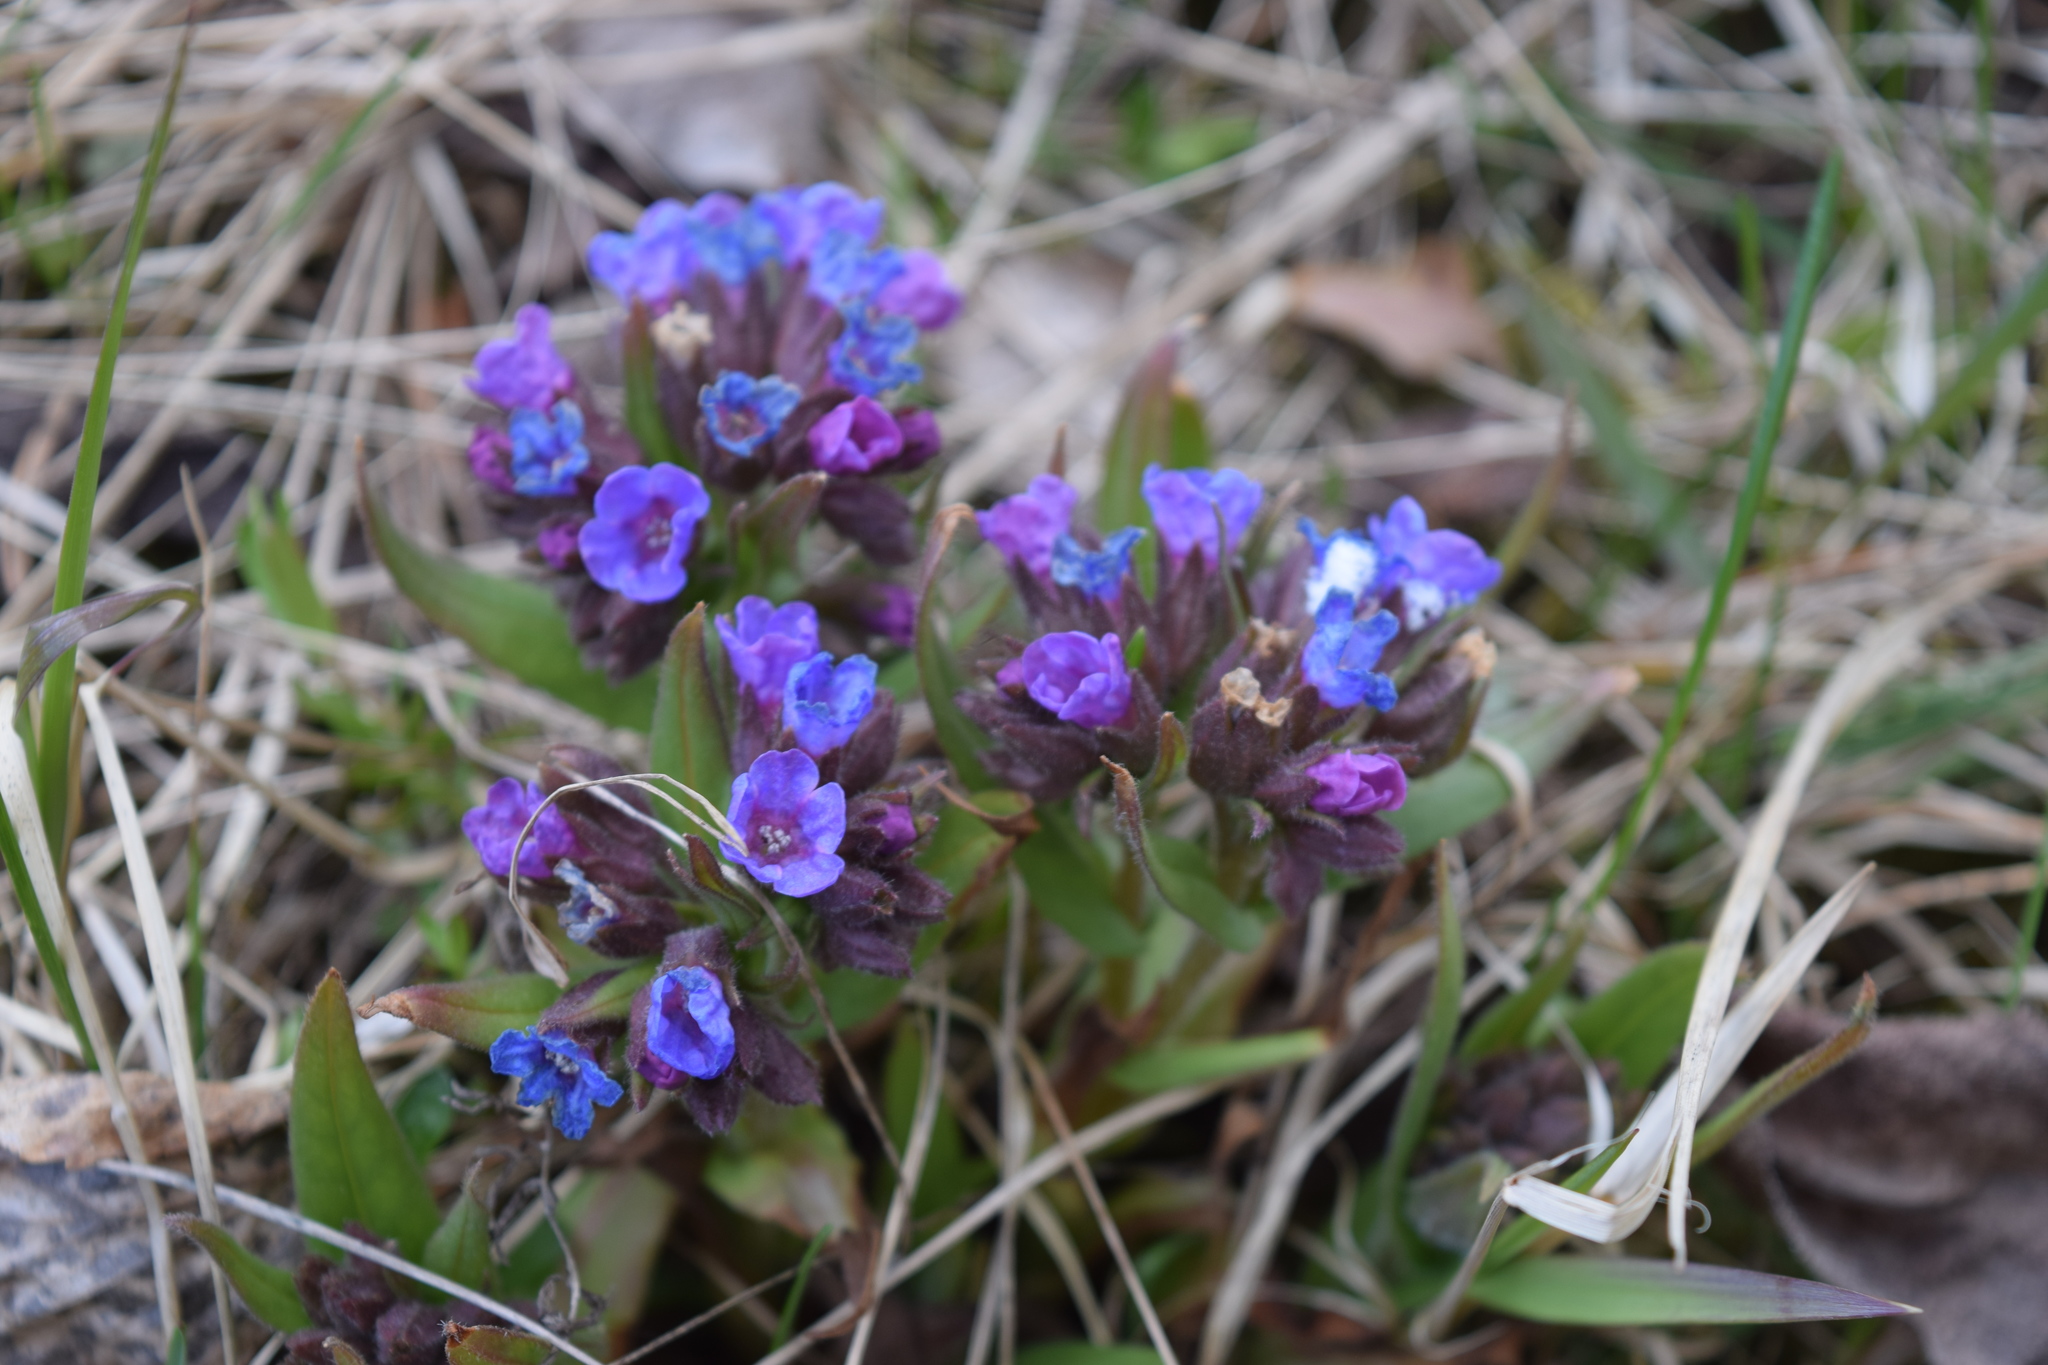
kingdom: Plantae
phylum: Tracheophyta
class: Magnoliopsida
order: Boraginales
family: Boraginaceae
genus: Pulmonaria
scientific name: Pulmonaria angustifolia
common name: Blue cowslip
